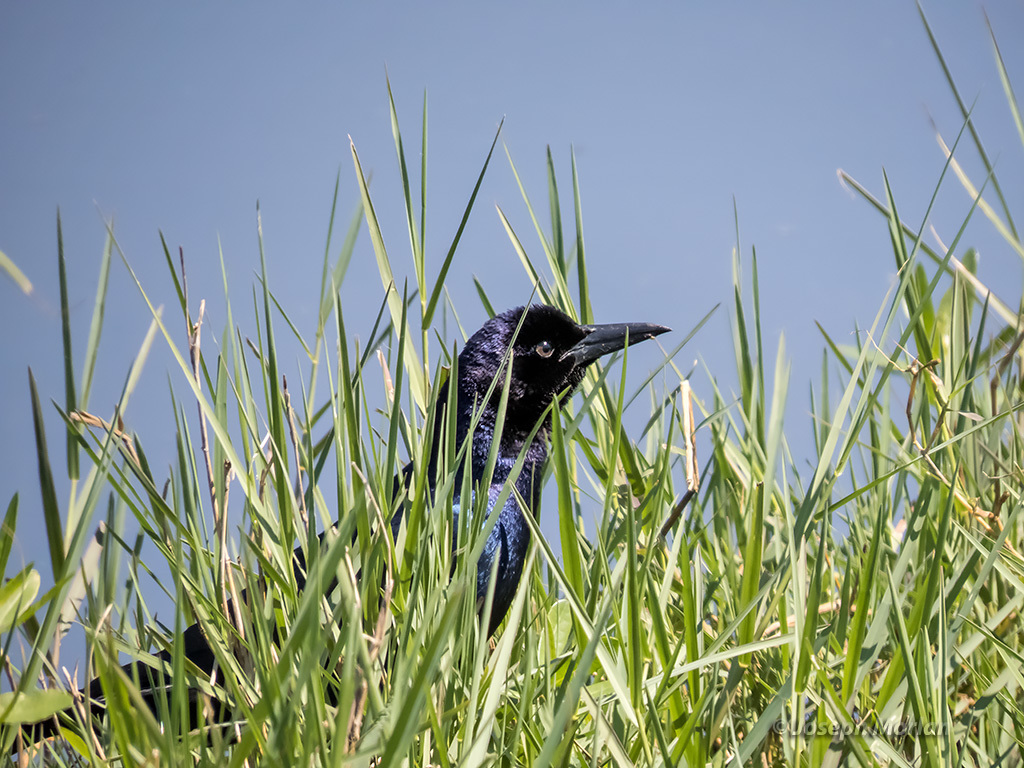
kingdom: Animalia
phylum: Chordata
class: Aves
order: Passeriformes
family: Icteridae
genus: Quiscalus
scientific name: Quiscalus major
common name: Boat-tailed grackle
